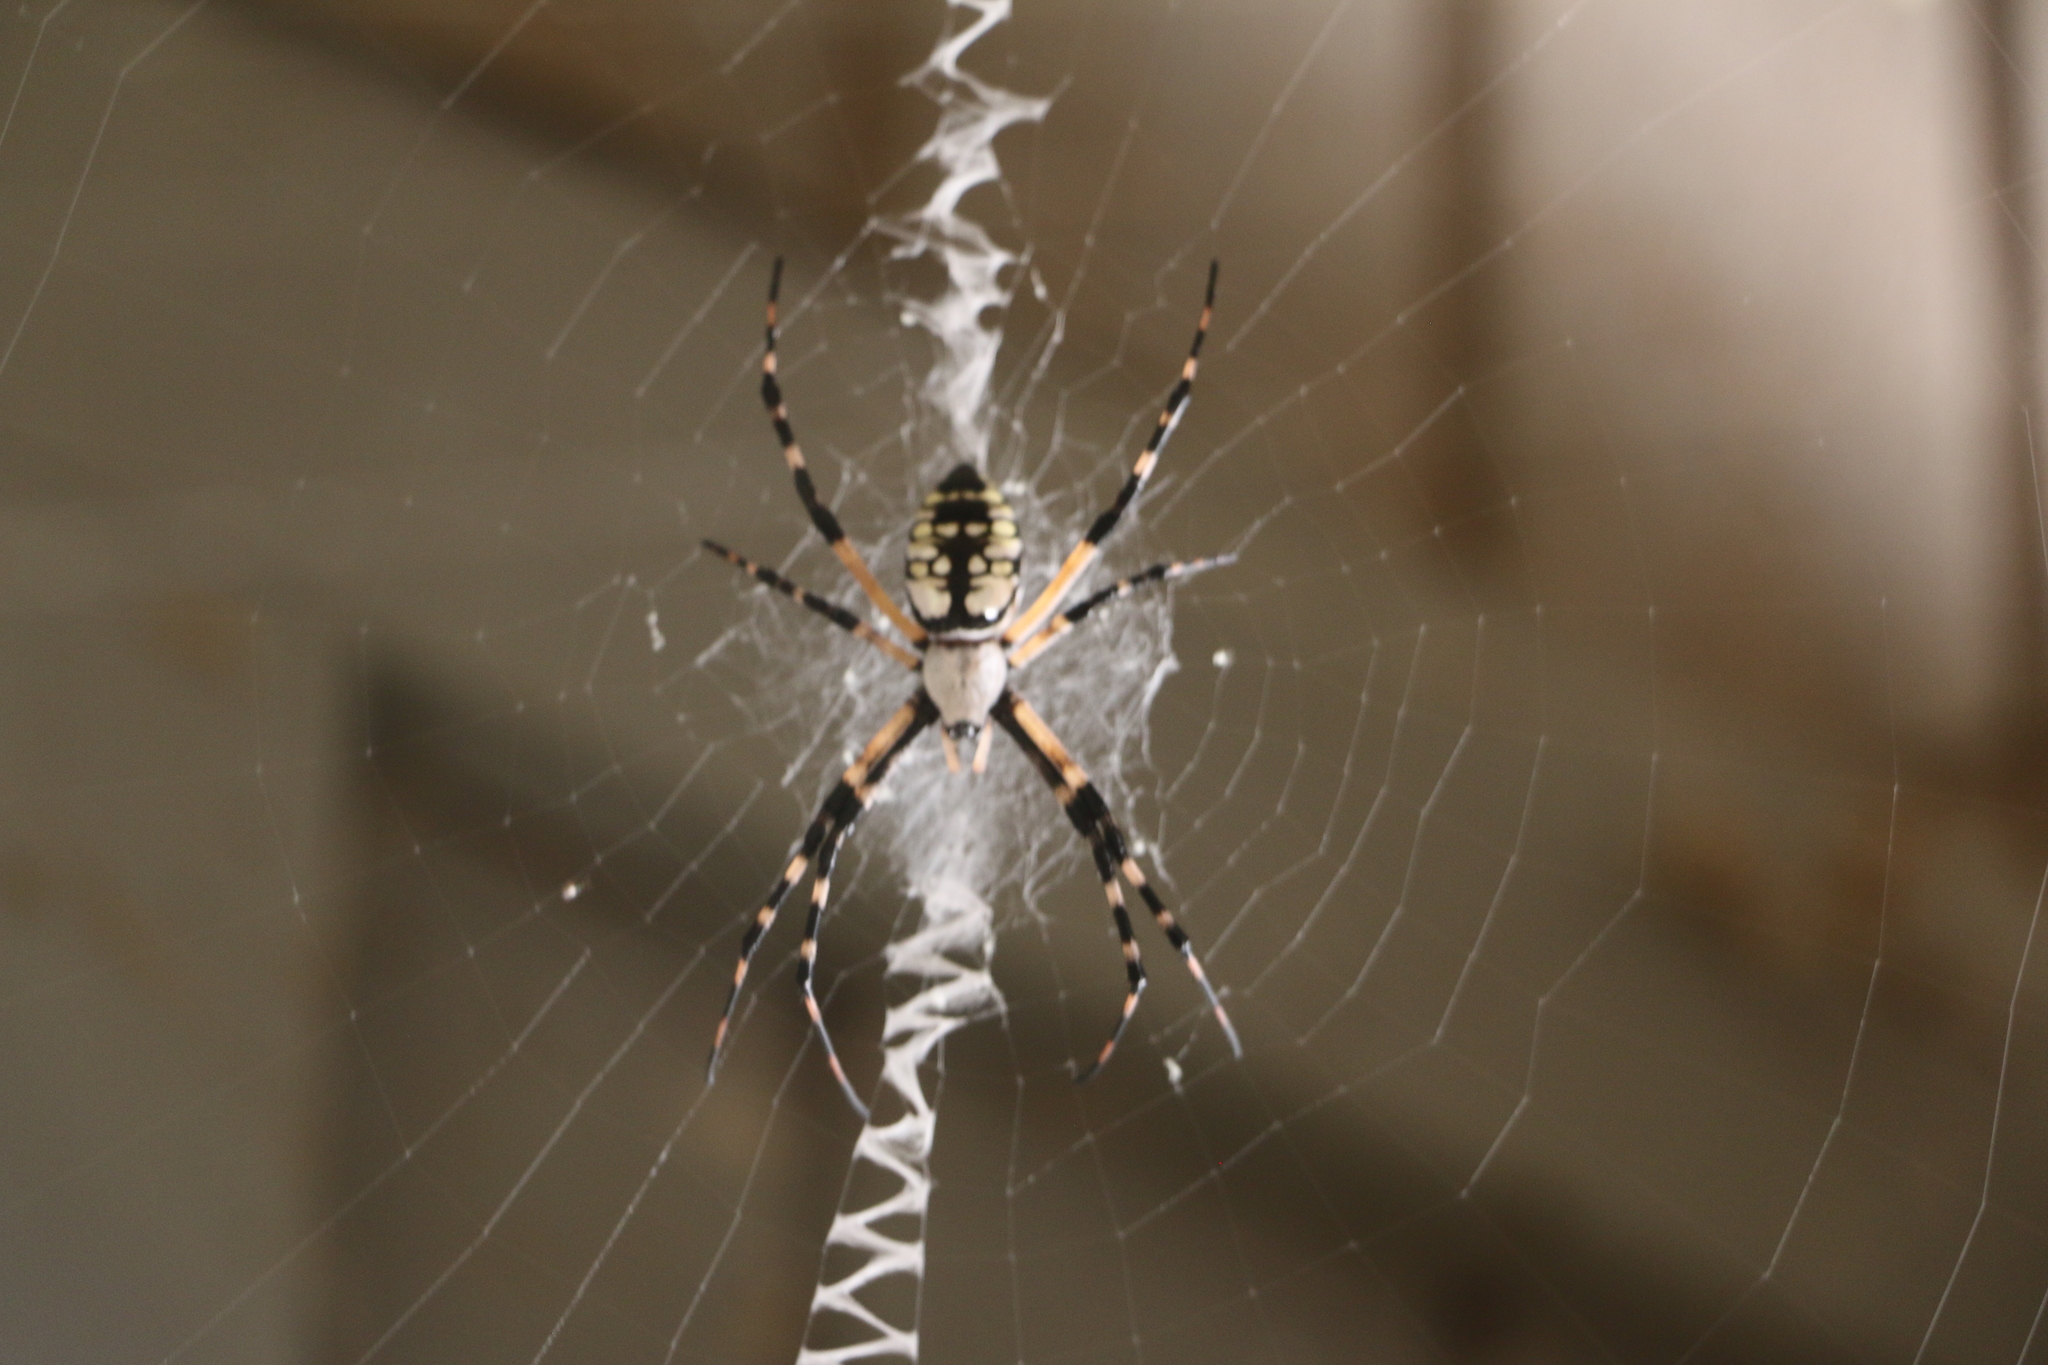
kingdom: Animalia
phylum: Arthropoda
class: Arachnida
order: Araneae
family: Araneidae
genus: Argiope
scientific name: Argiope aurantia
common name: Orb weavers
